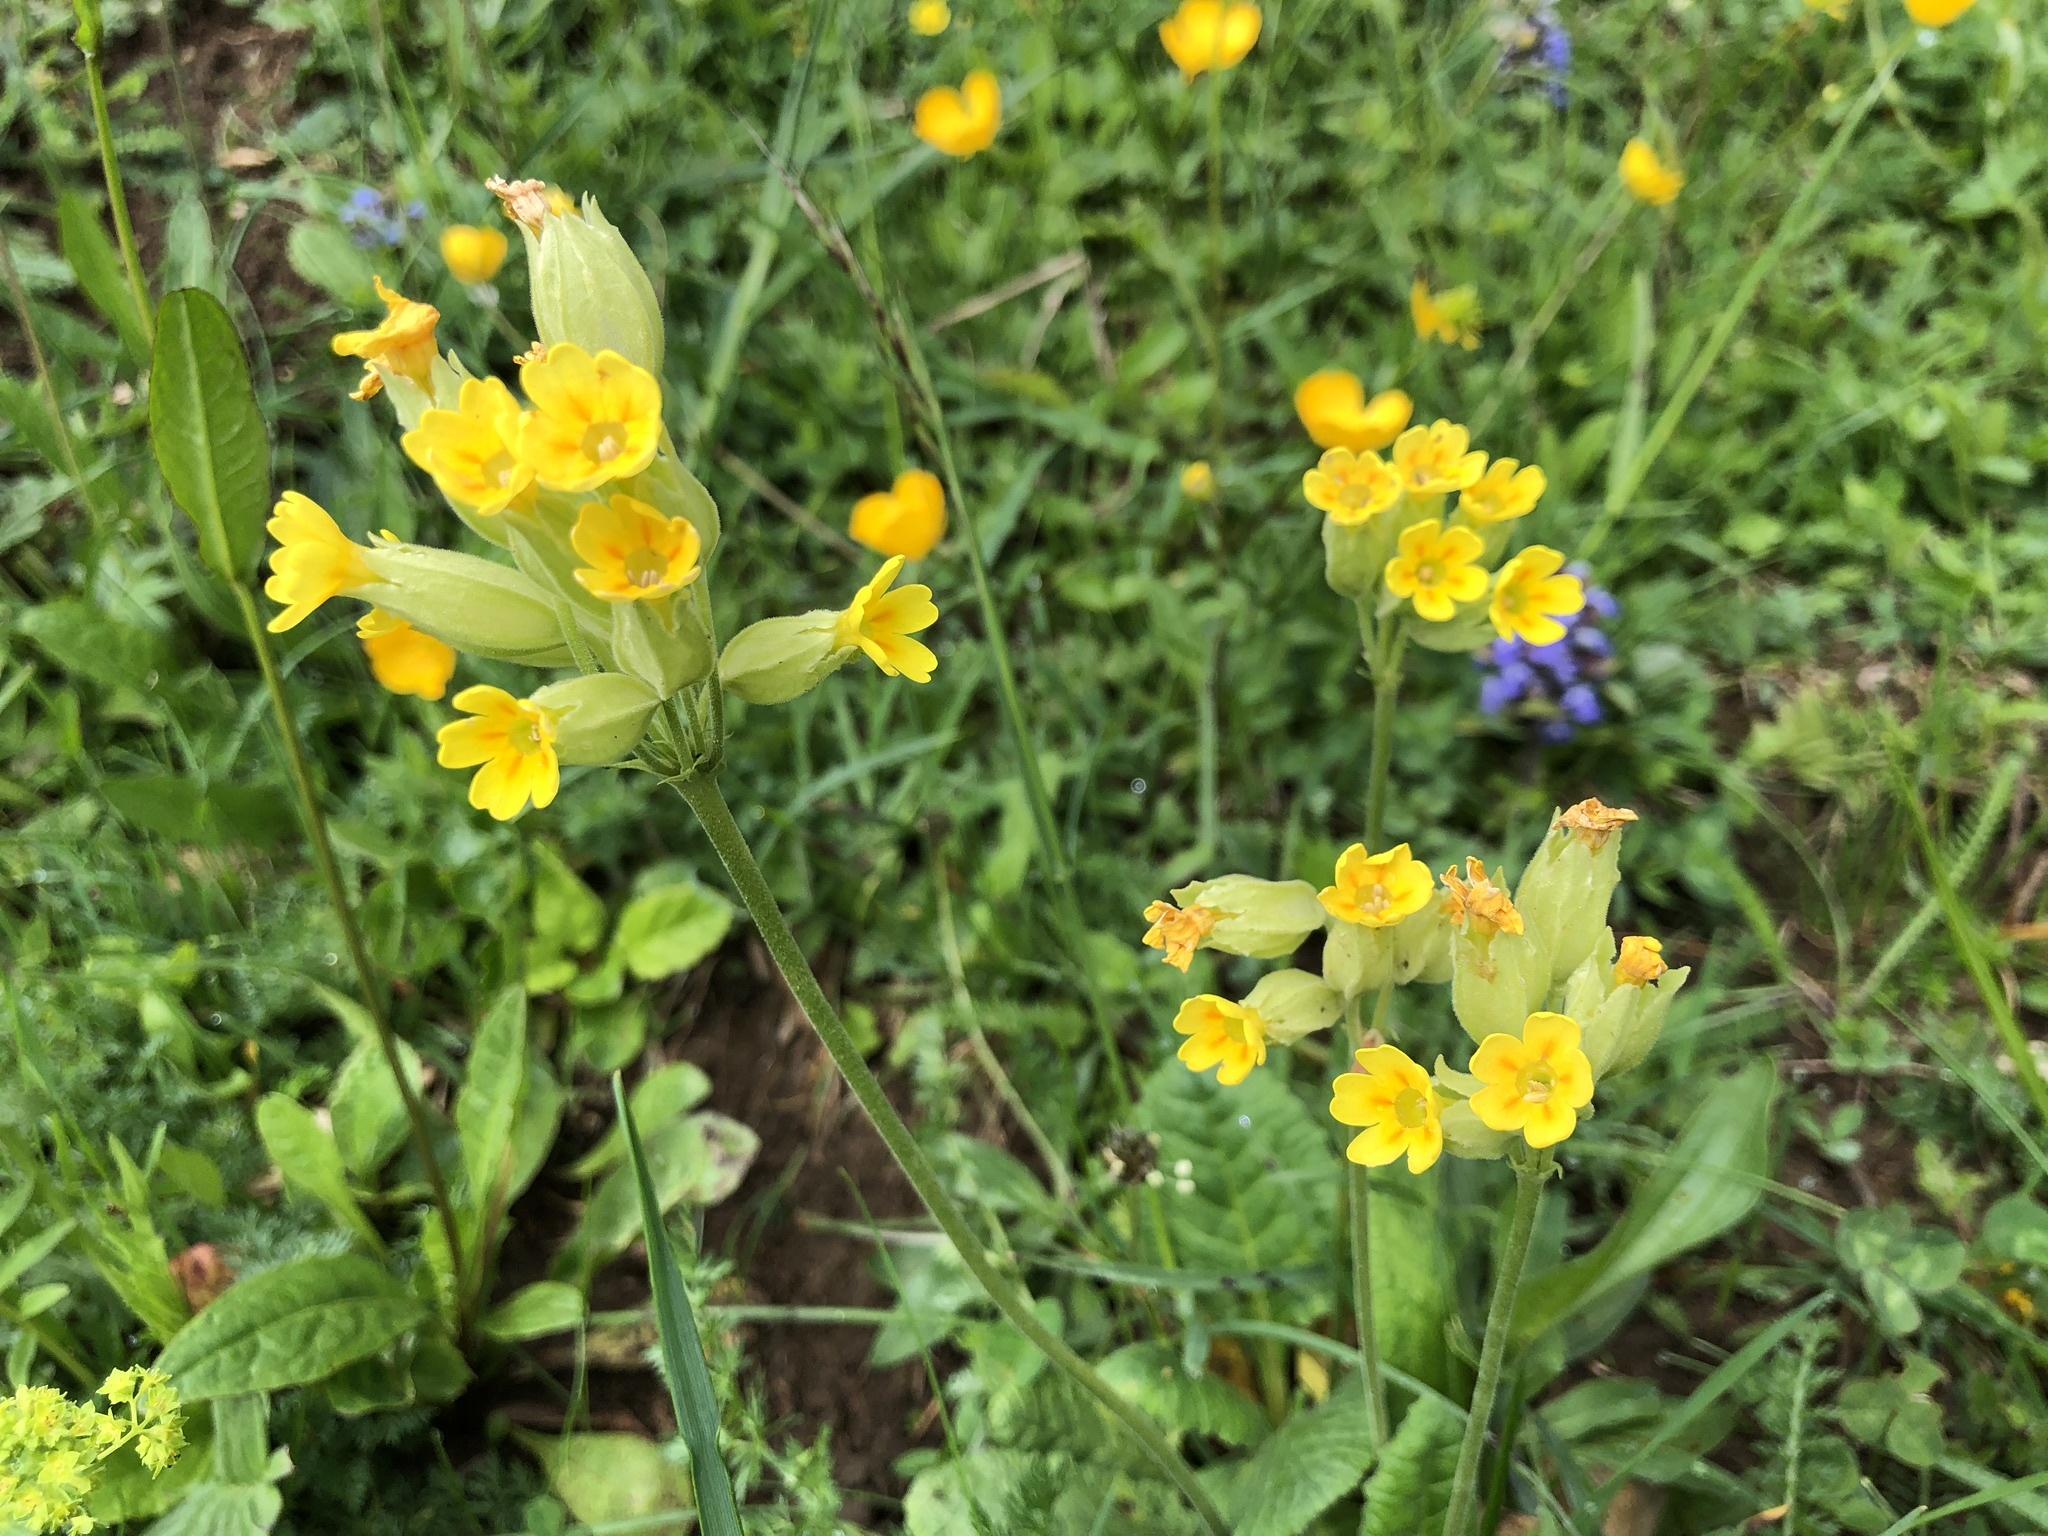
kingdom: Plantae
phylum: Tracheophyta
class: Magnoliopsida
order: Ericales
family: Primulaceae
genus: Primula
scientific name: Primula veris
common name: Cowslip
